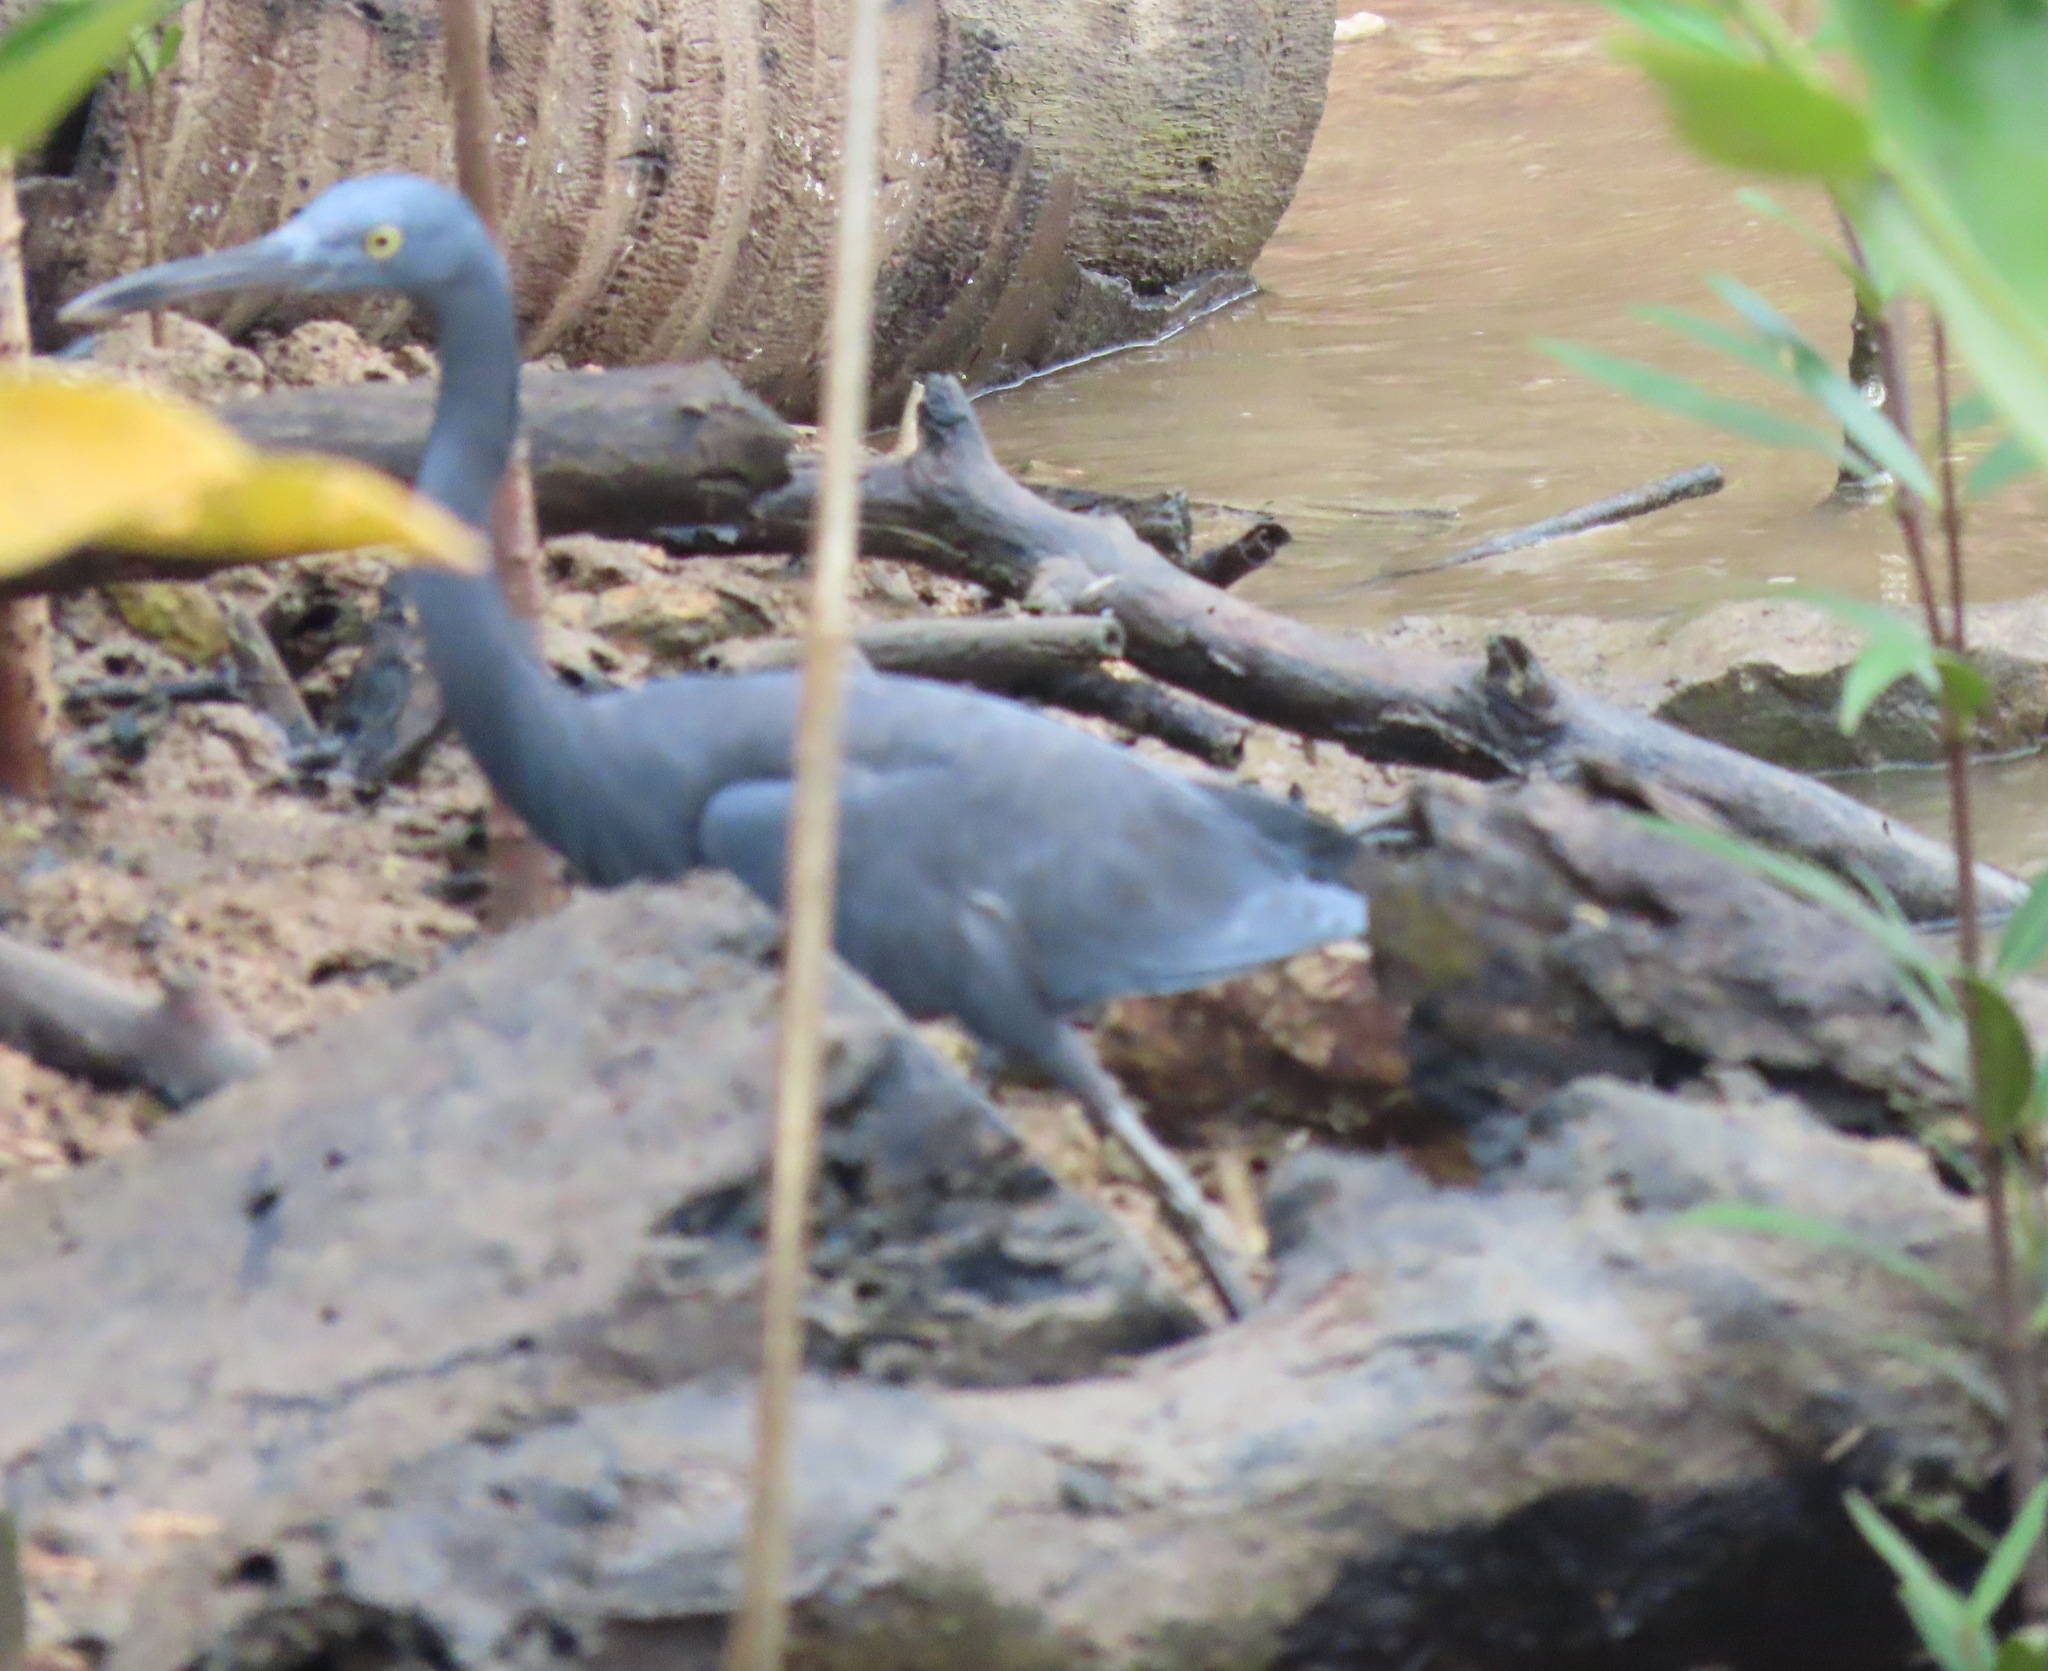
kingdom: Animalia
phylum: Chordata
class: Aves
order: Pelecaniformes
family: Ardeidae
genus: Egretta
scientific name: Egretta sacra
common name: Pacific reef heron
